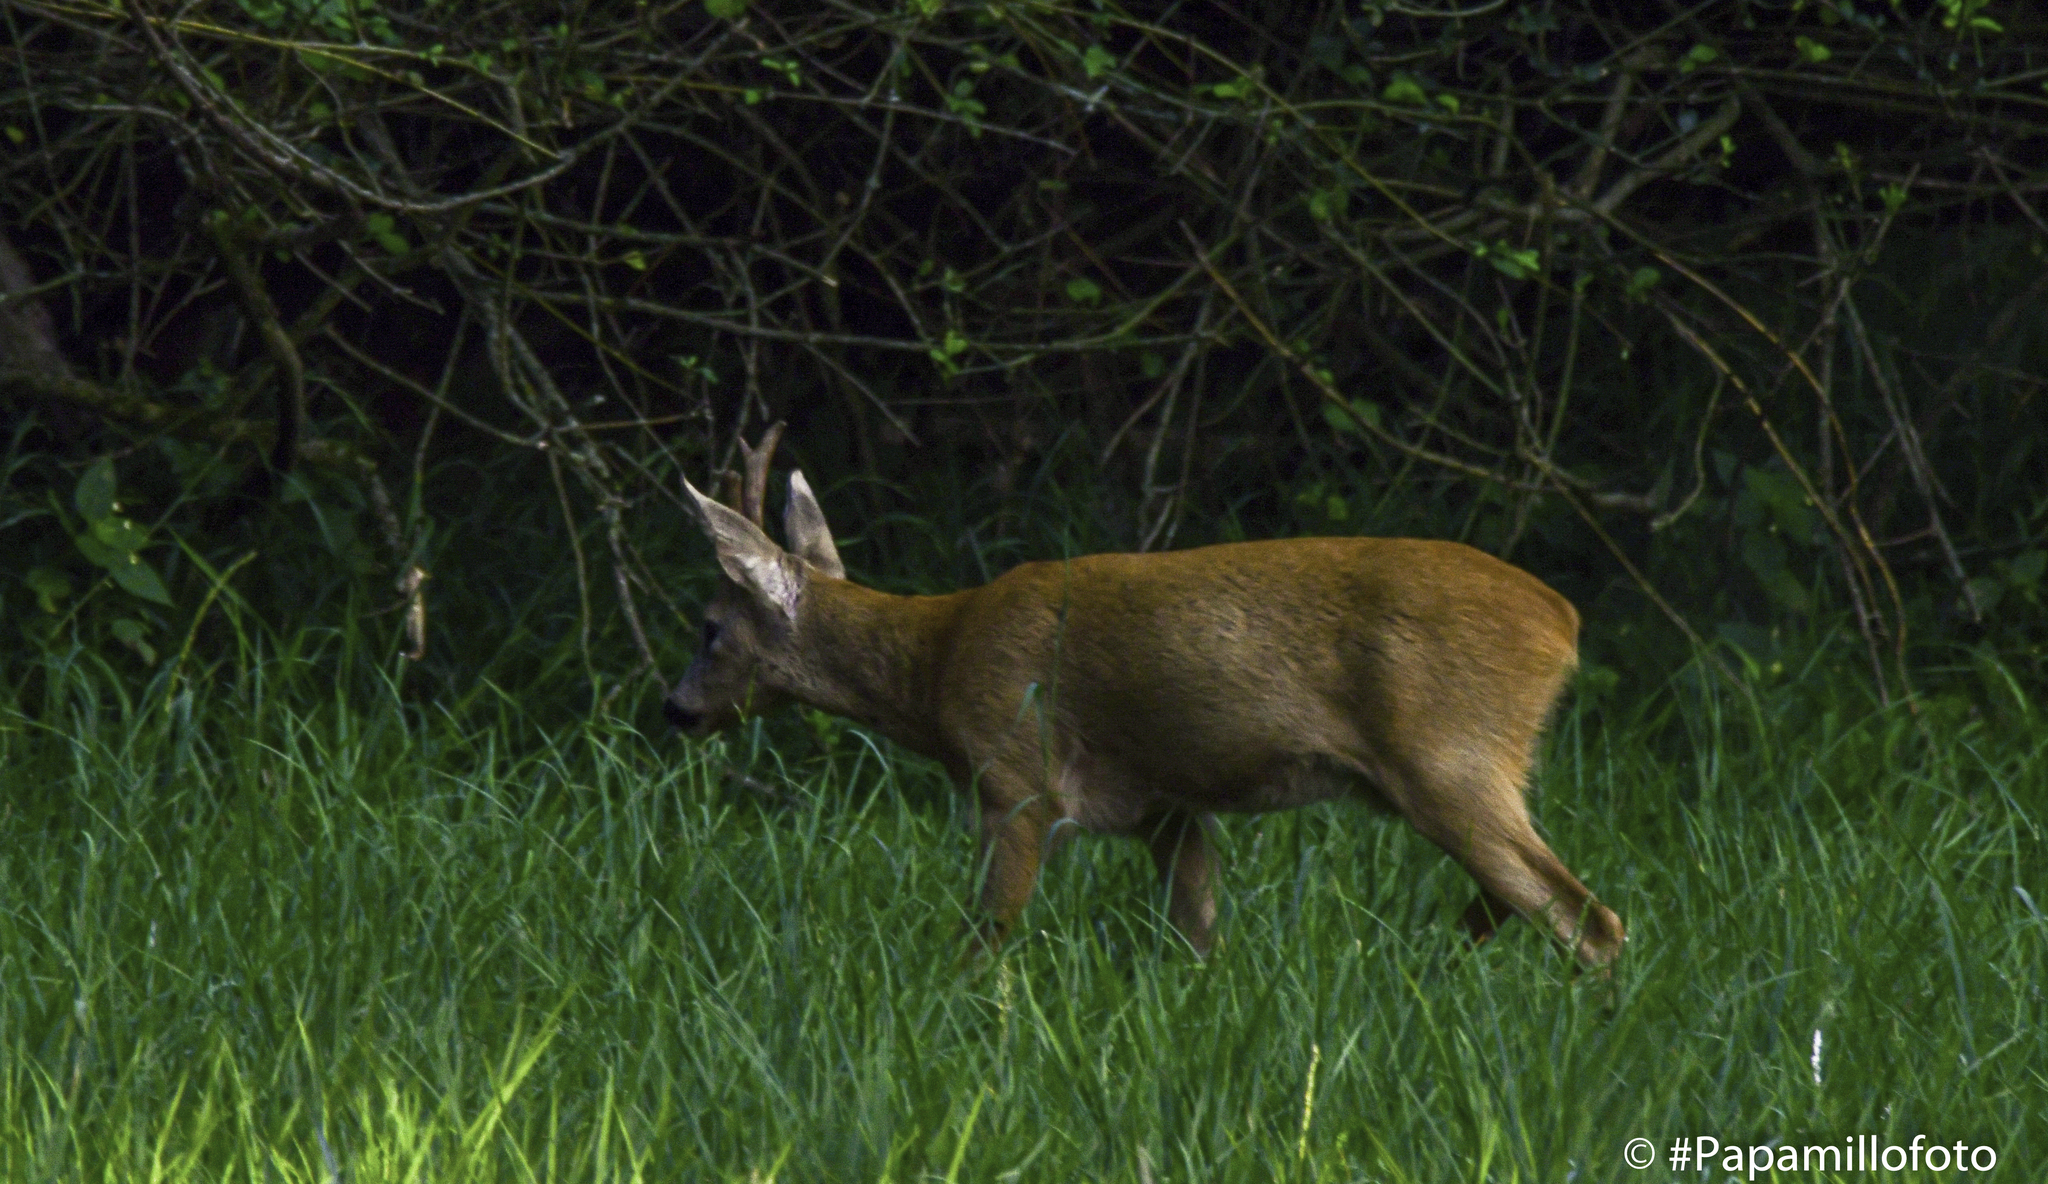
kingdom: Animalia
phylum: Chordata
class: Mammalia
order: Artiodactyla
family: Cervidae
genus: Capreolus
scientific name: Capreolus capreolus
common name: Western roe deer
